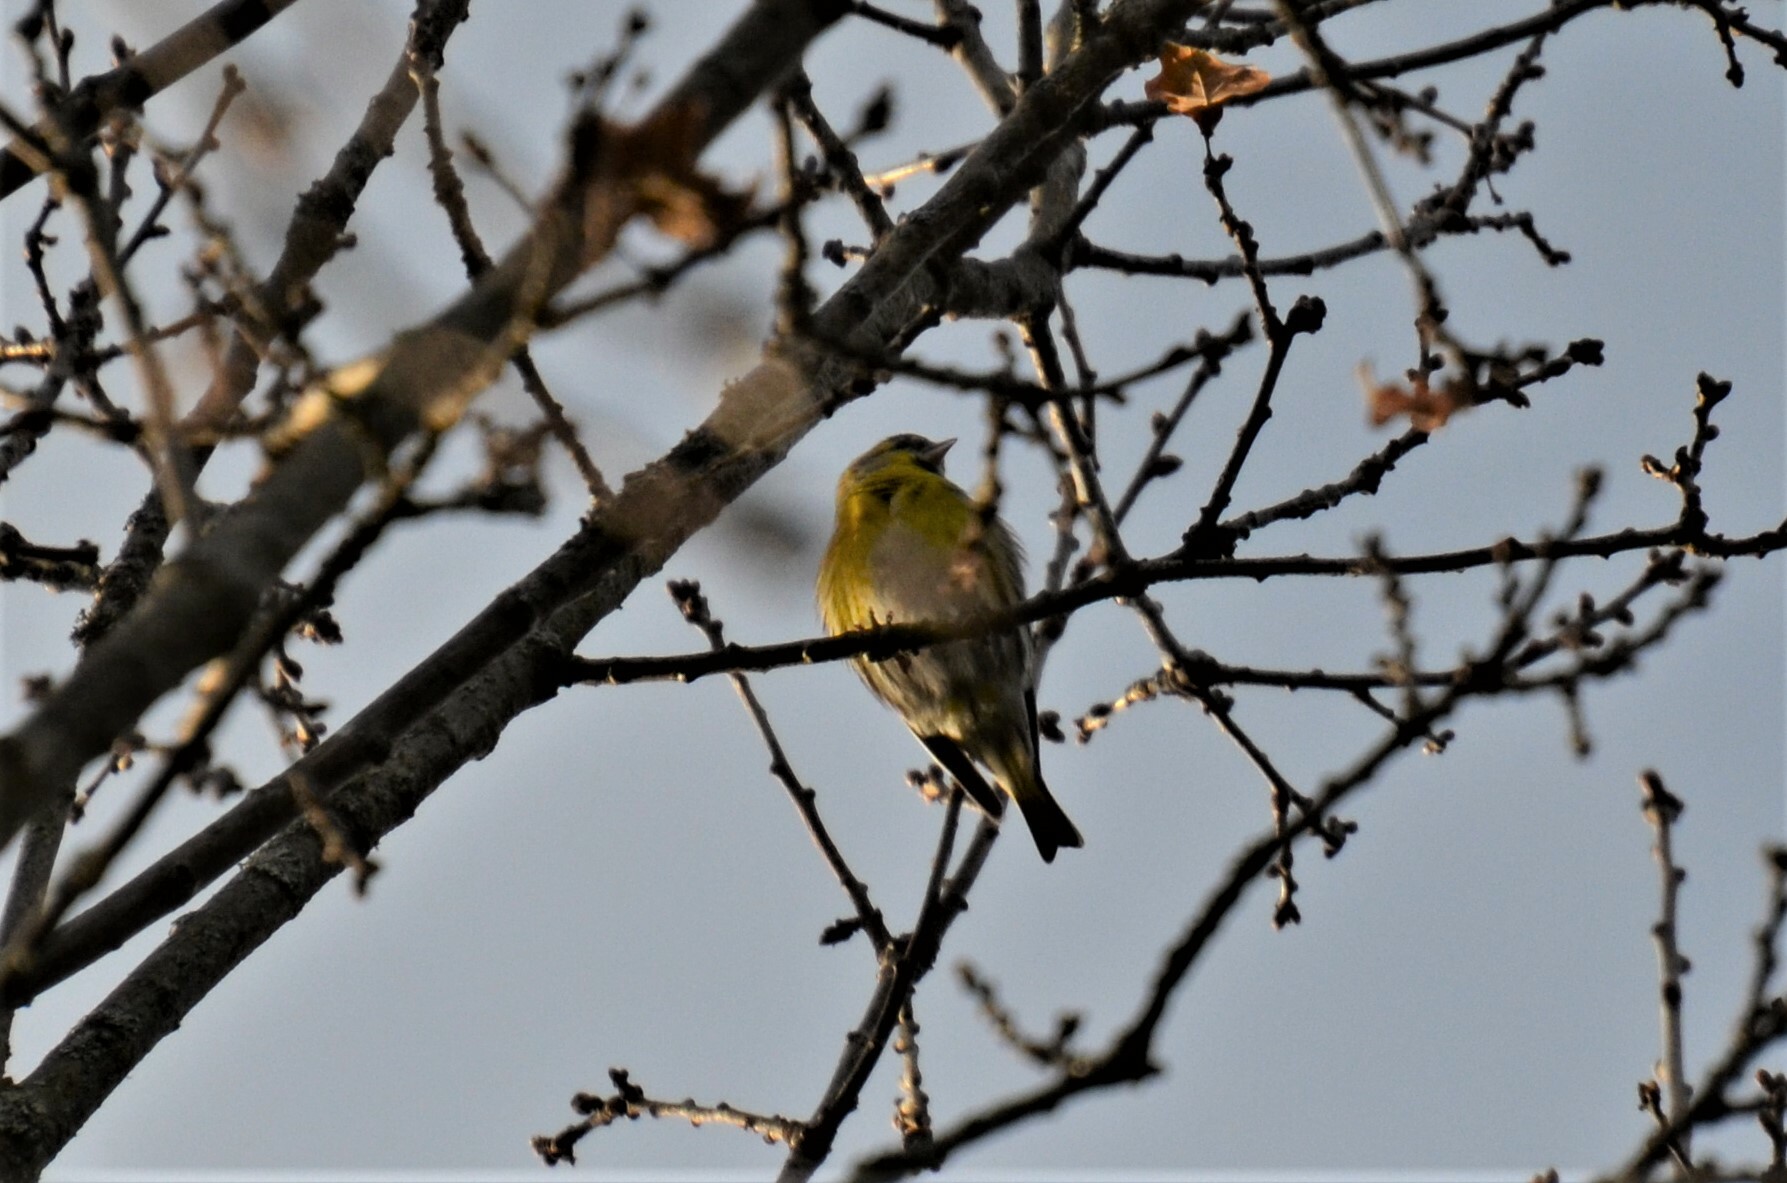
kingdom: Animalia
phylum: Chordata
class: Aves
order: Passeriformes
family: Fringillidae
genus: Spinus
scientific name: Spinus spinus
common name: Eurasian siskin
